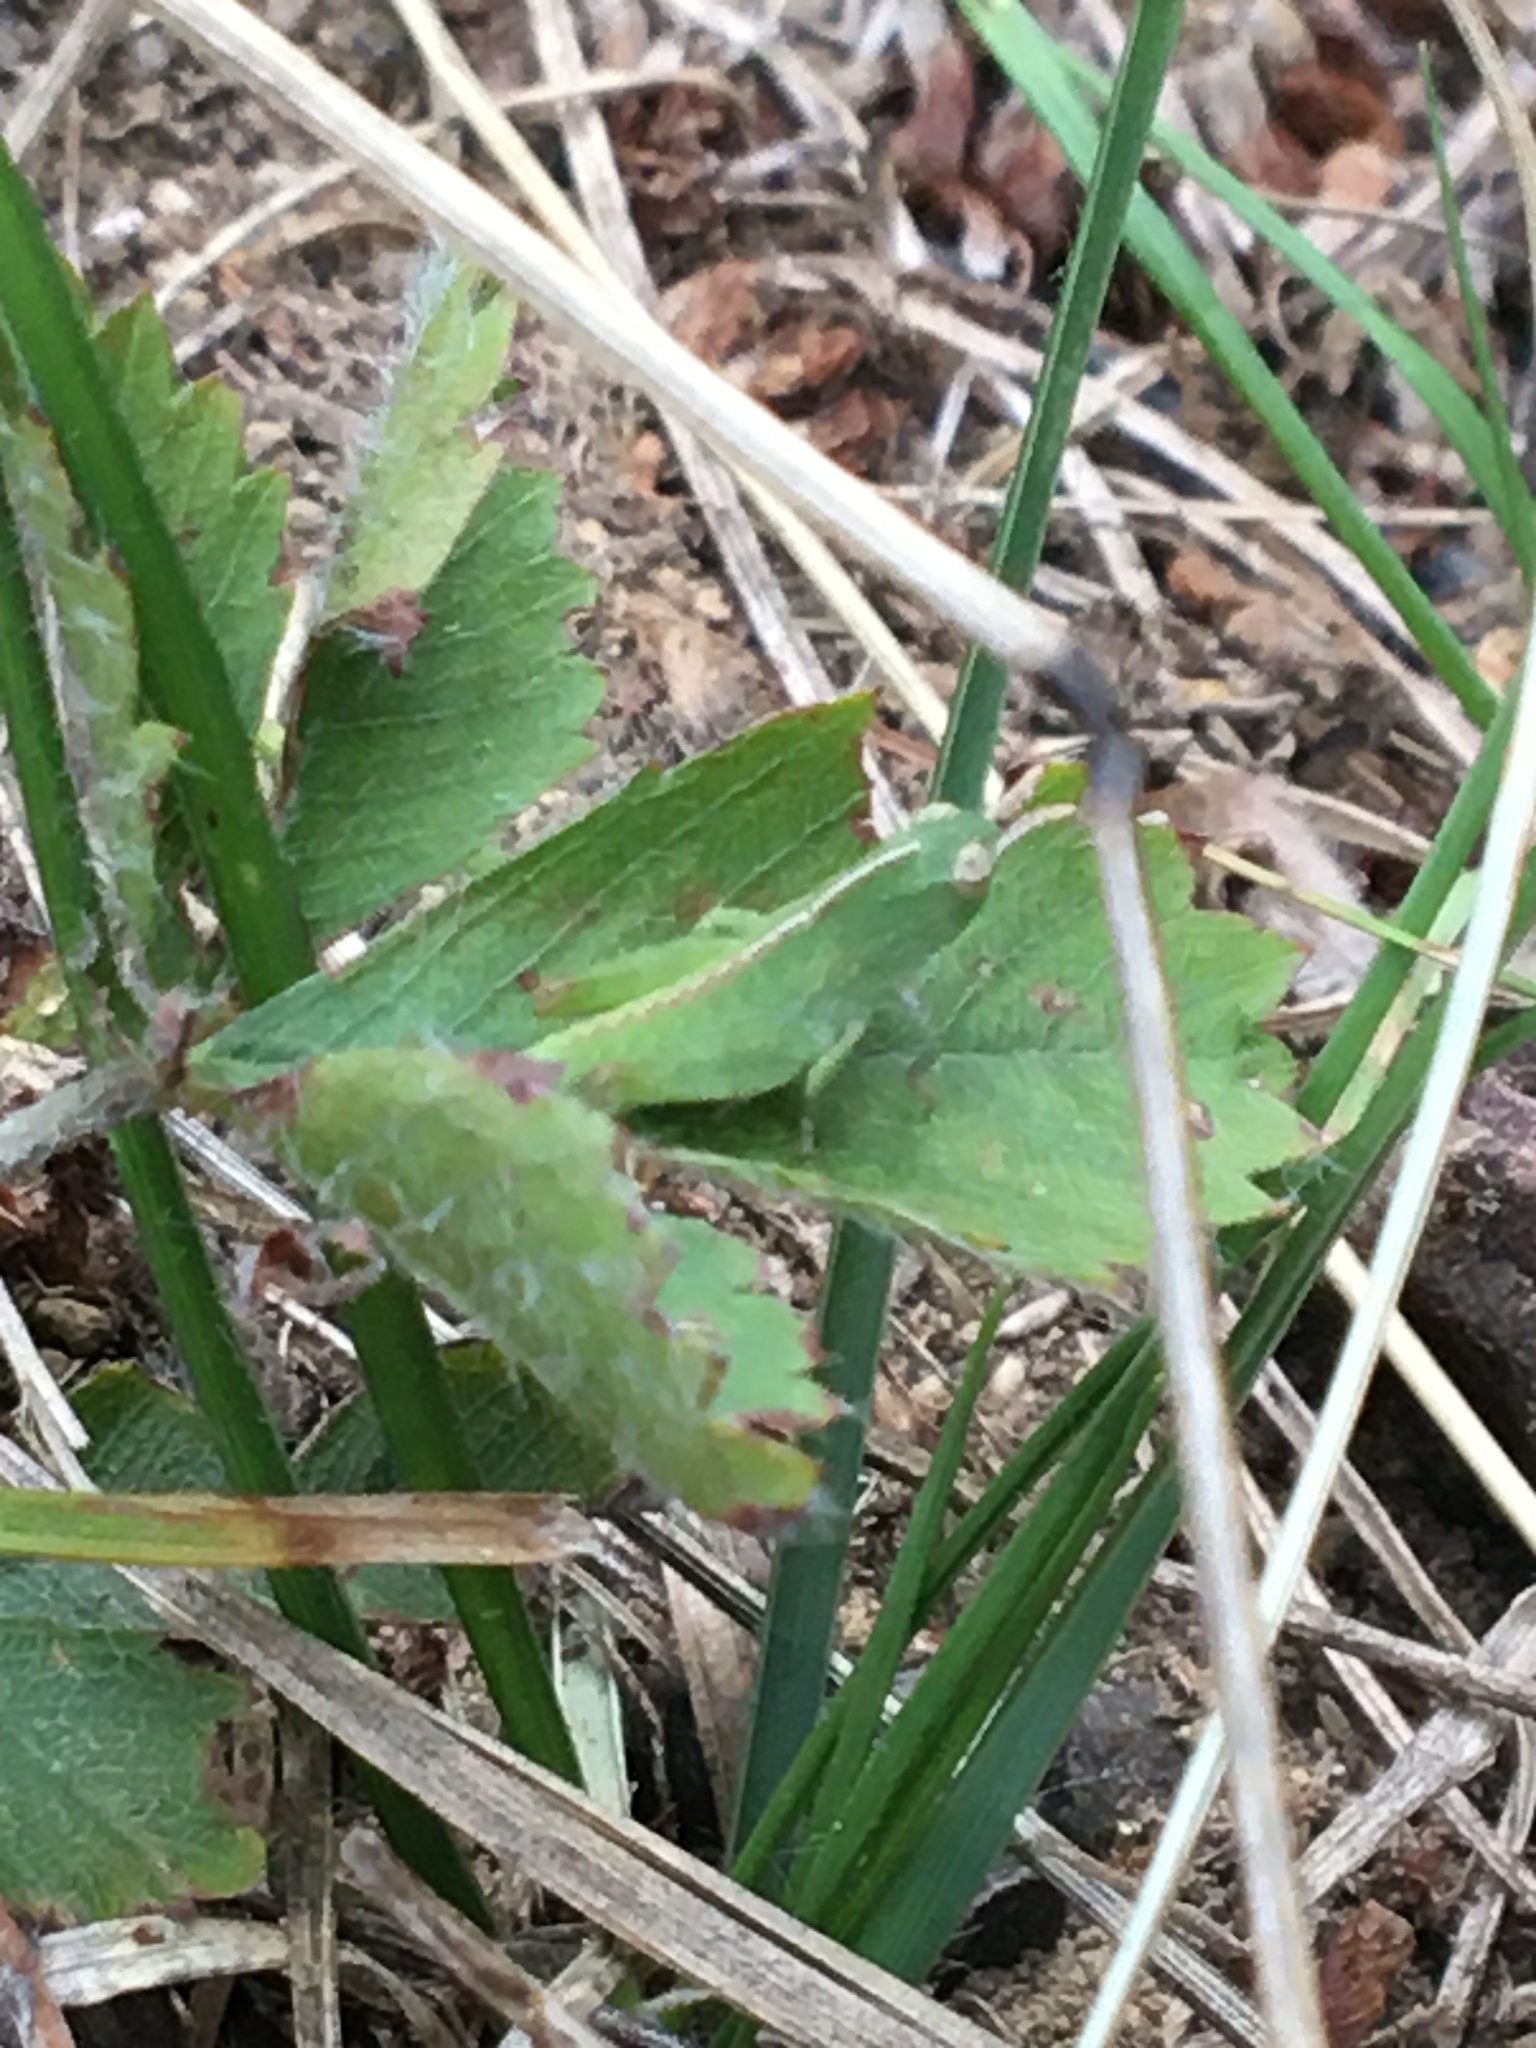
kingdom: Animalia
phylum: Arthropoda
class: Insecta
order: Orthoptera
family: Acrididae
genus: Chortophaga
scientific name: Chortophaga viridifasciata
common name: Green-striped grasshopper
